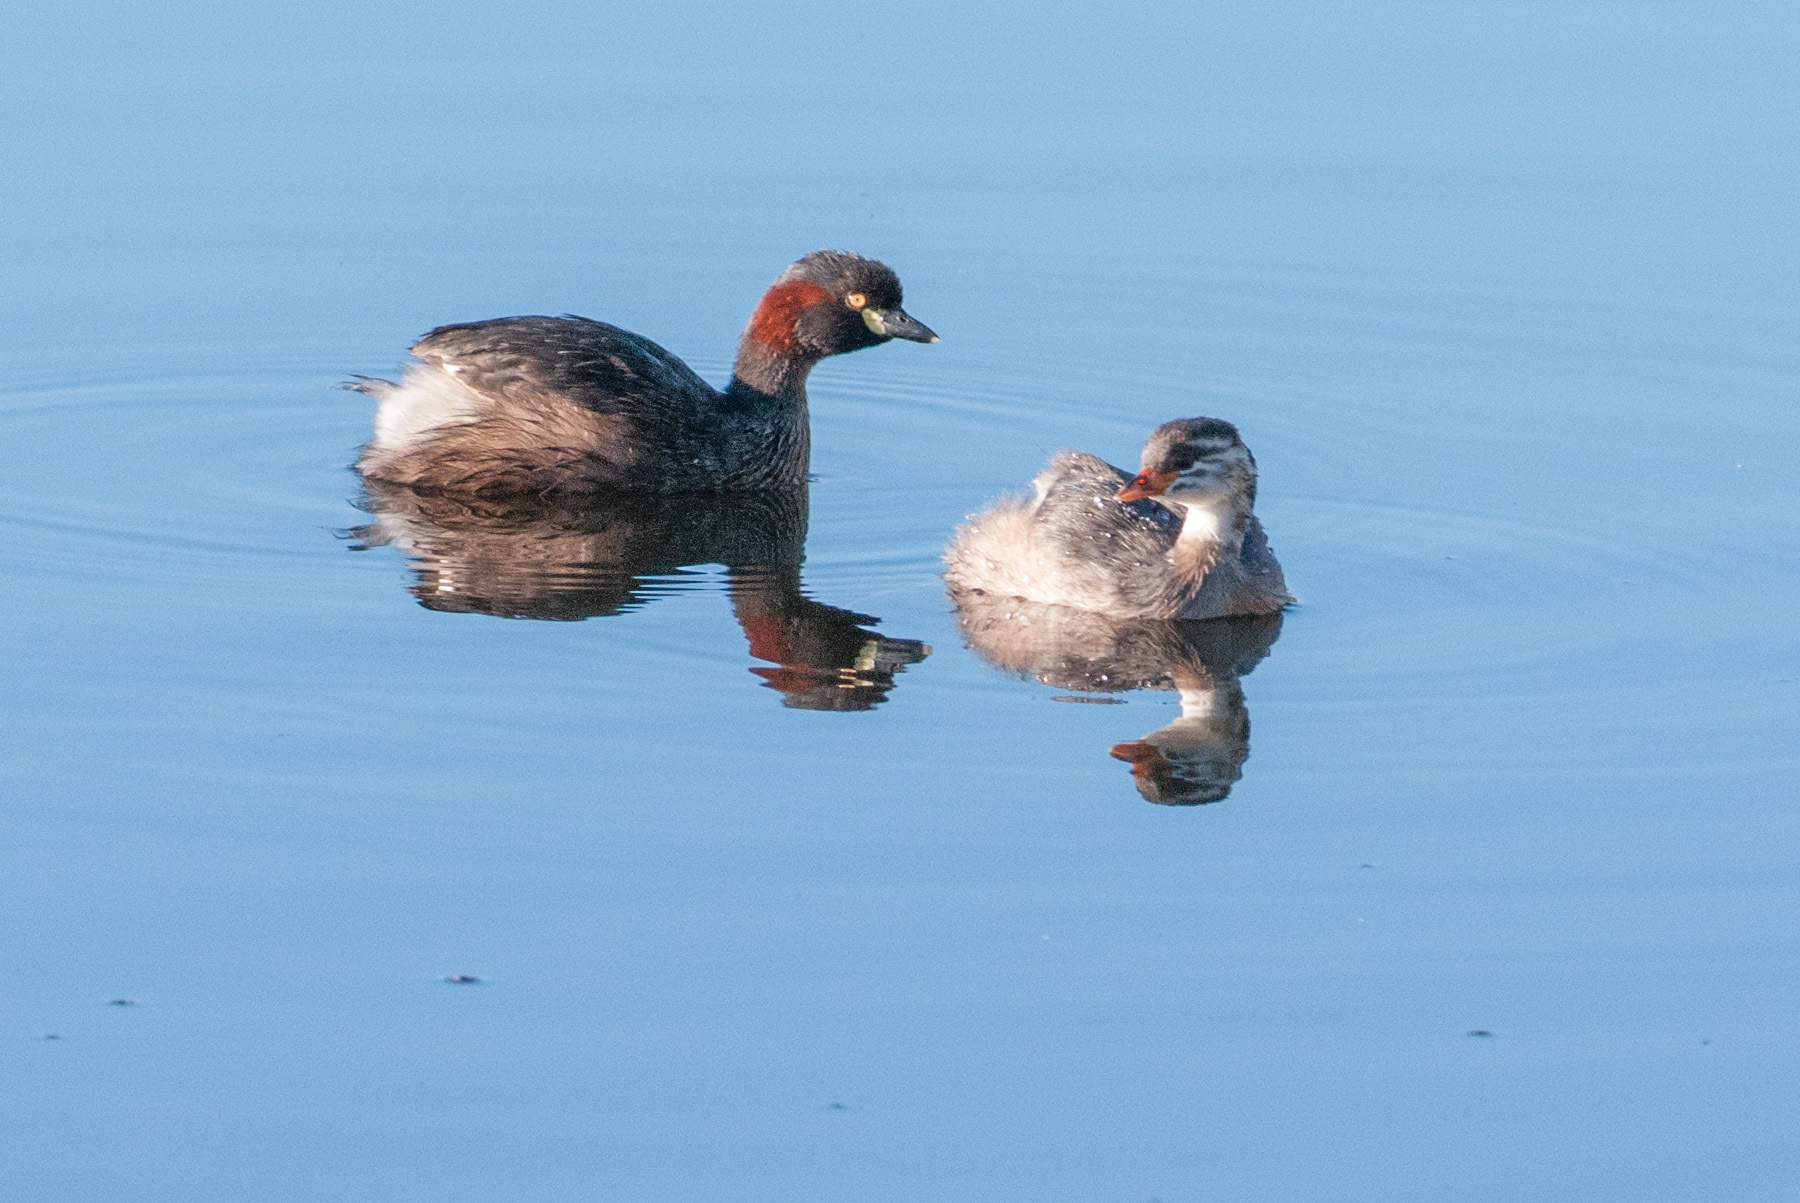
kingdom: Animalia
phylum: Chordata
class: Aves
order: Podicipediformes
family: Podicipedidae
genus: Tachybaptus
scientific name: Tachybaptus novaehollandiae
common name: Australasian grebe
